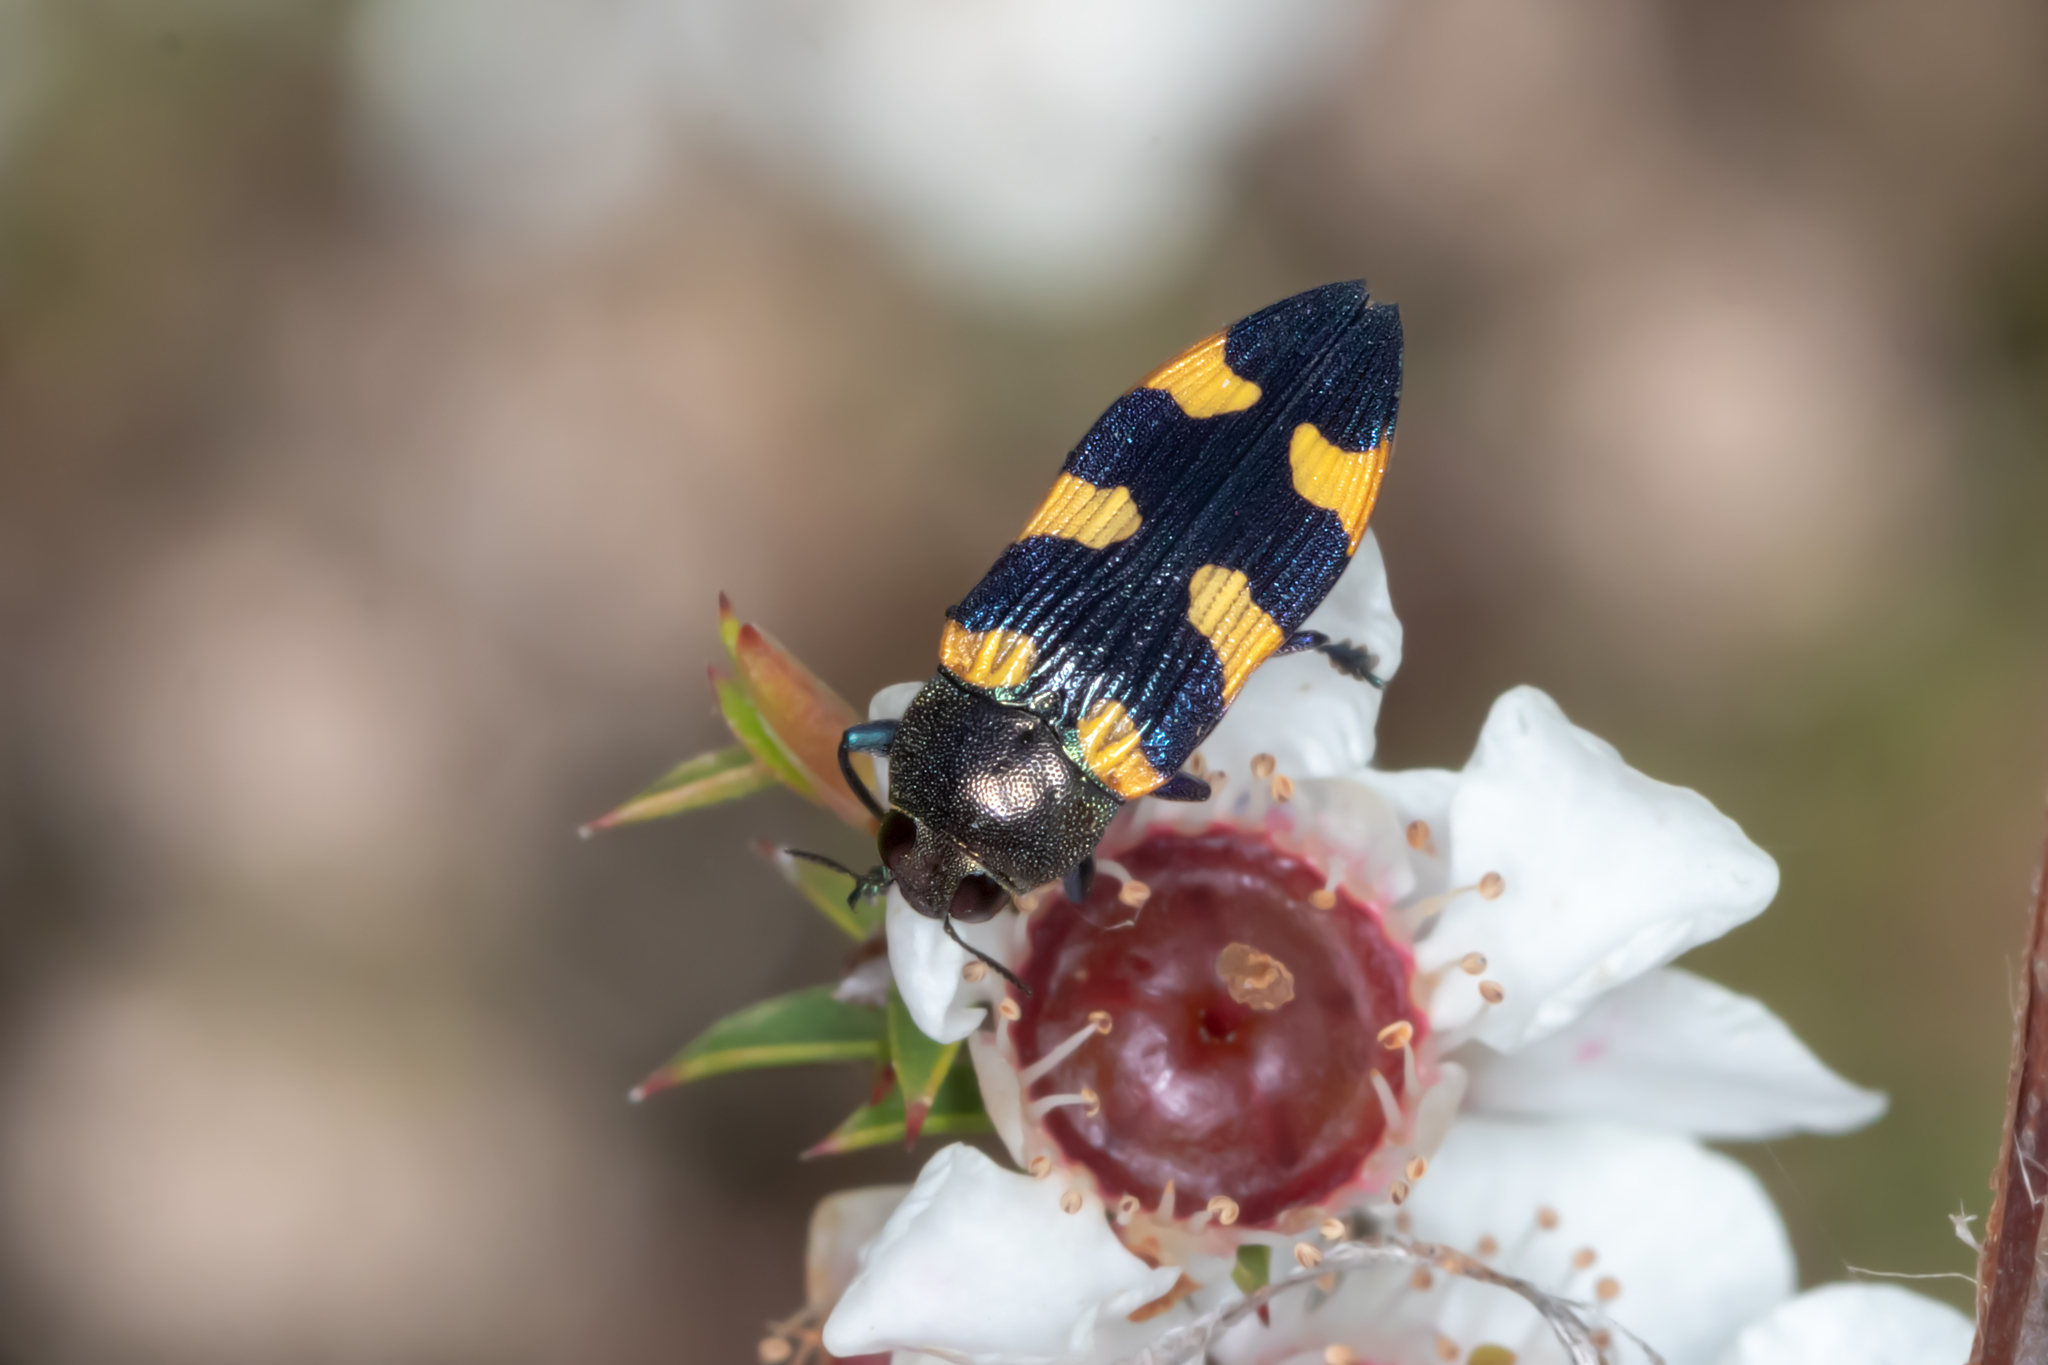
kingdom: Animalia
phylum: Arthropoda
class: Insecta
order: Coleoptera
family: Buprestidae
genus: Castiarina
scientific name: Castiarina imitator
